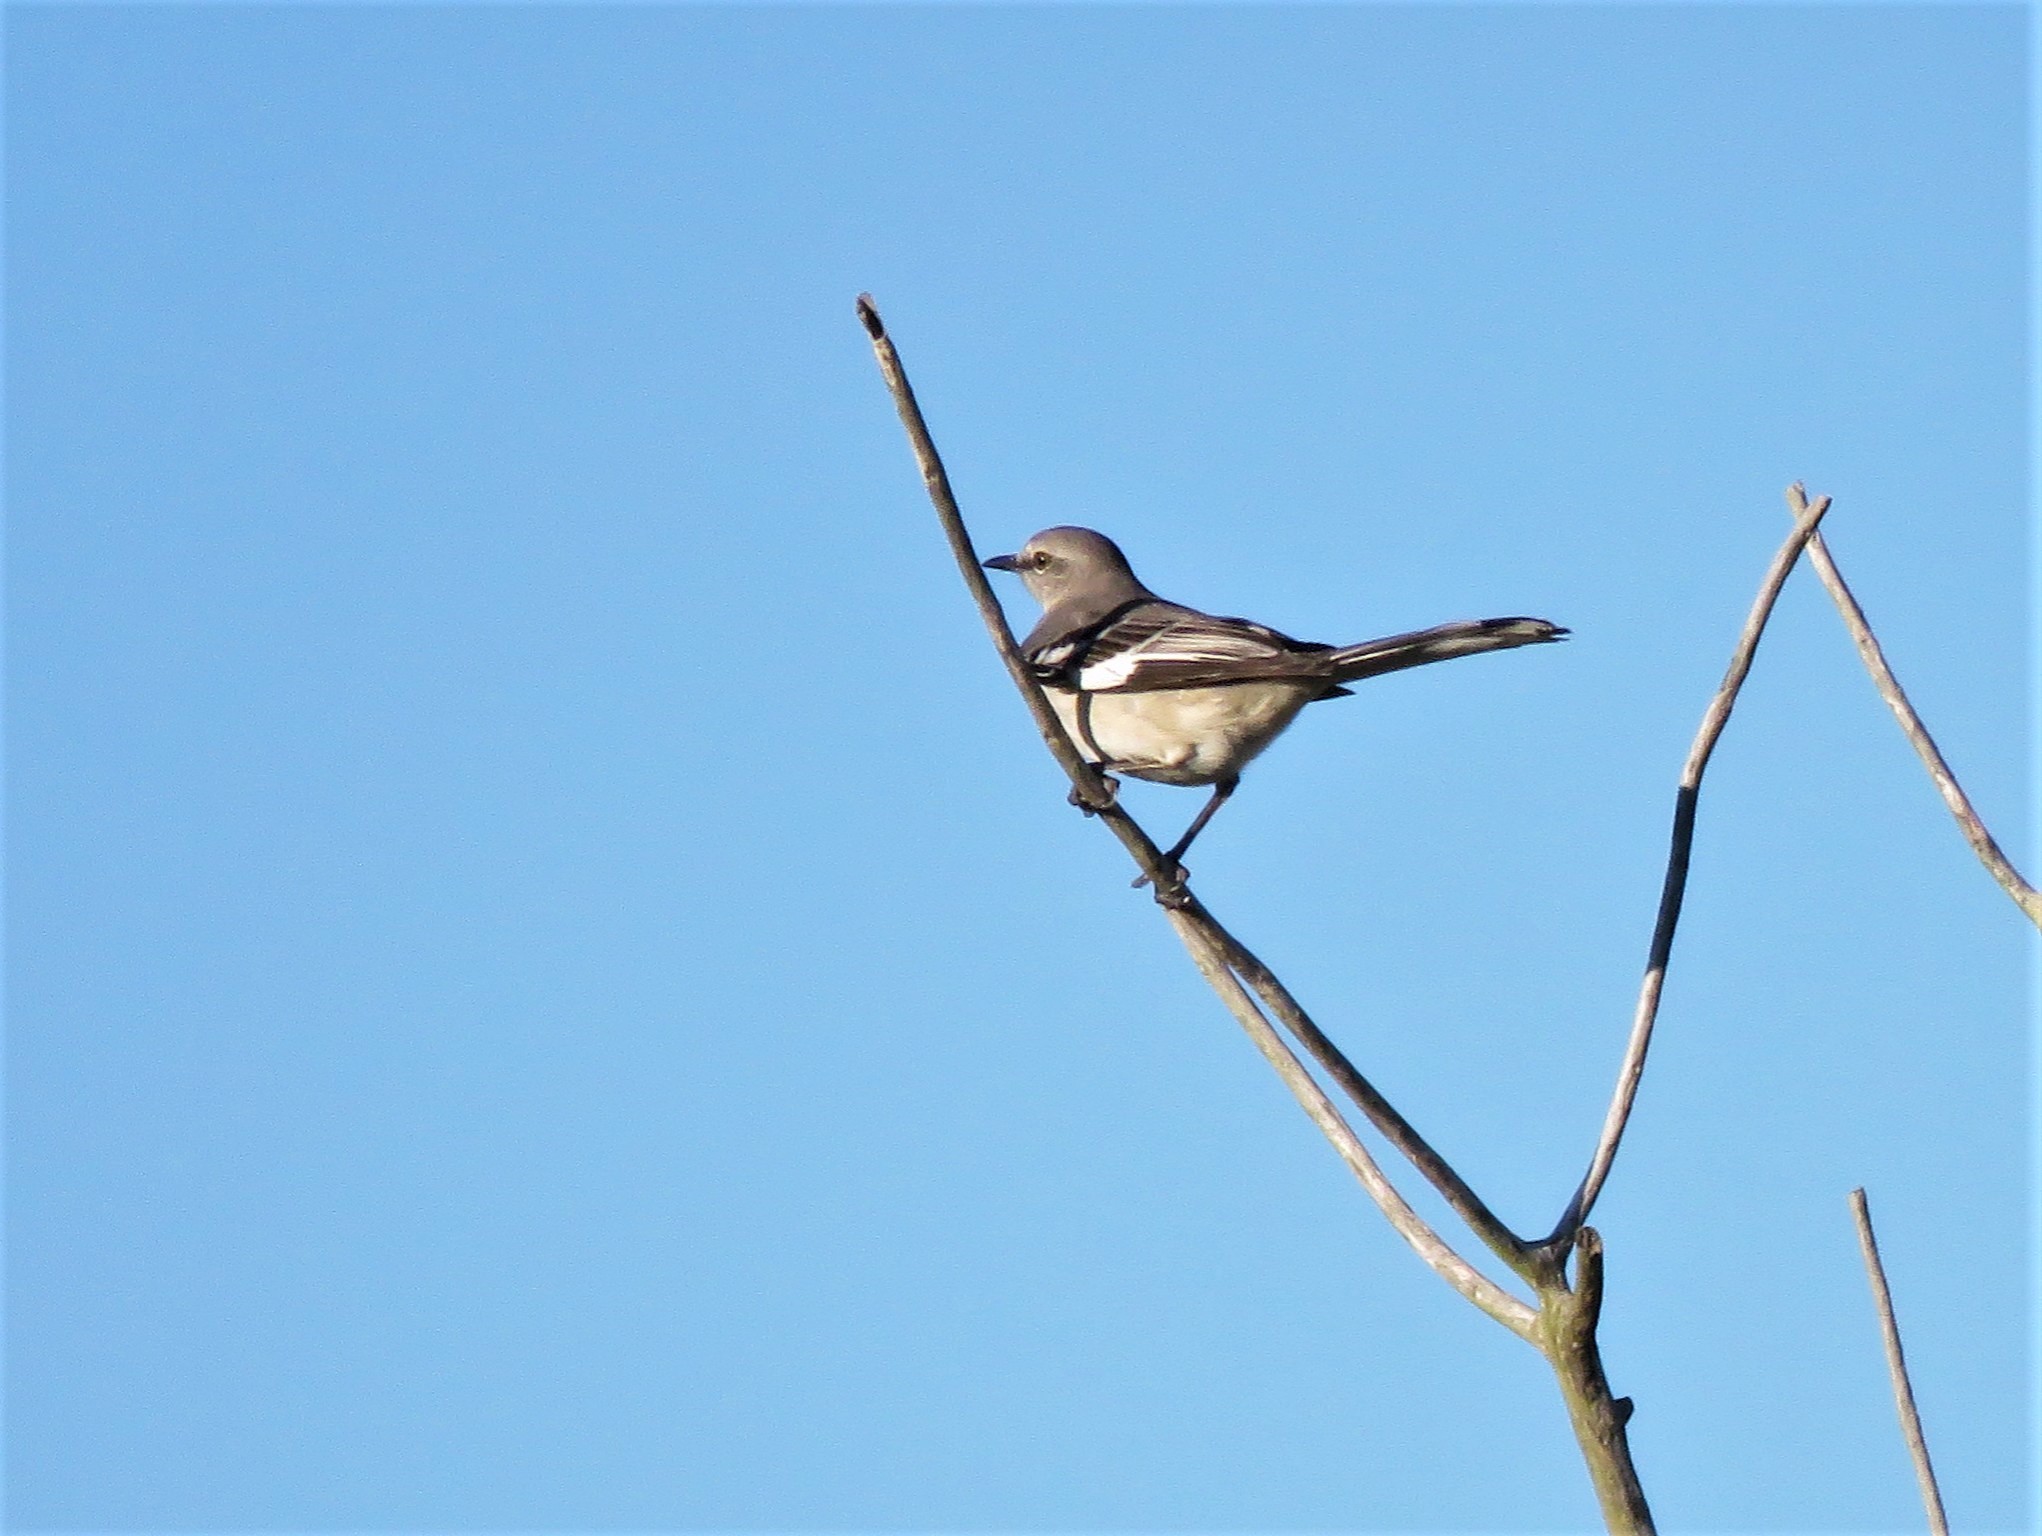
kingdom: Animalia
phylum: Chordata
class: Aves
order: Passeriformes
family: Mimidae
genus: Mimus
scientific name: Mimus polyglottos
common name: Northern mockingbird
